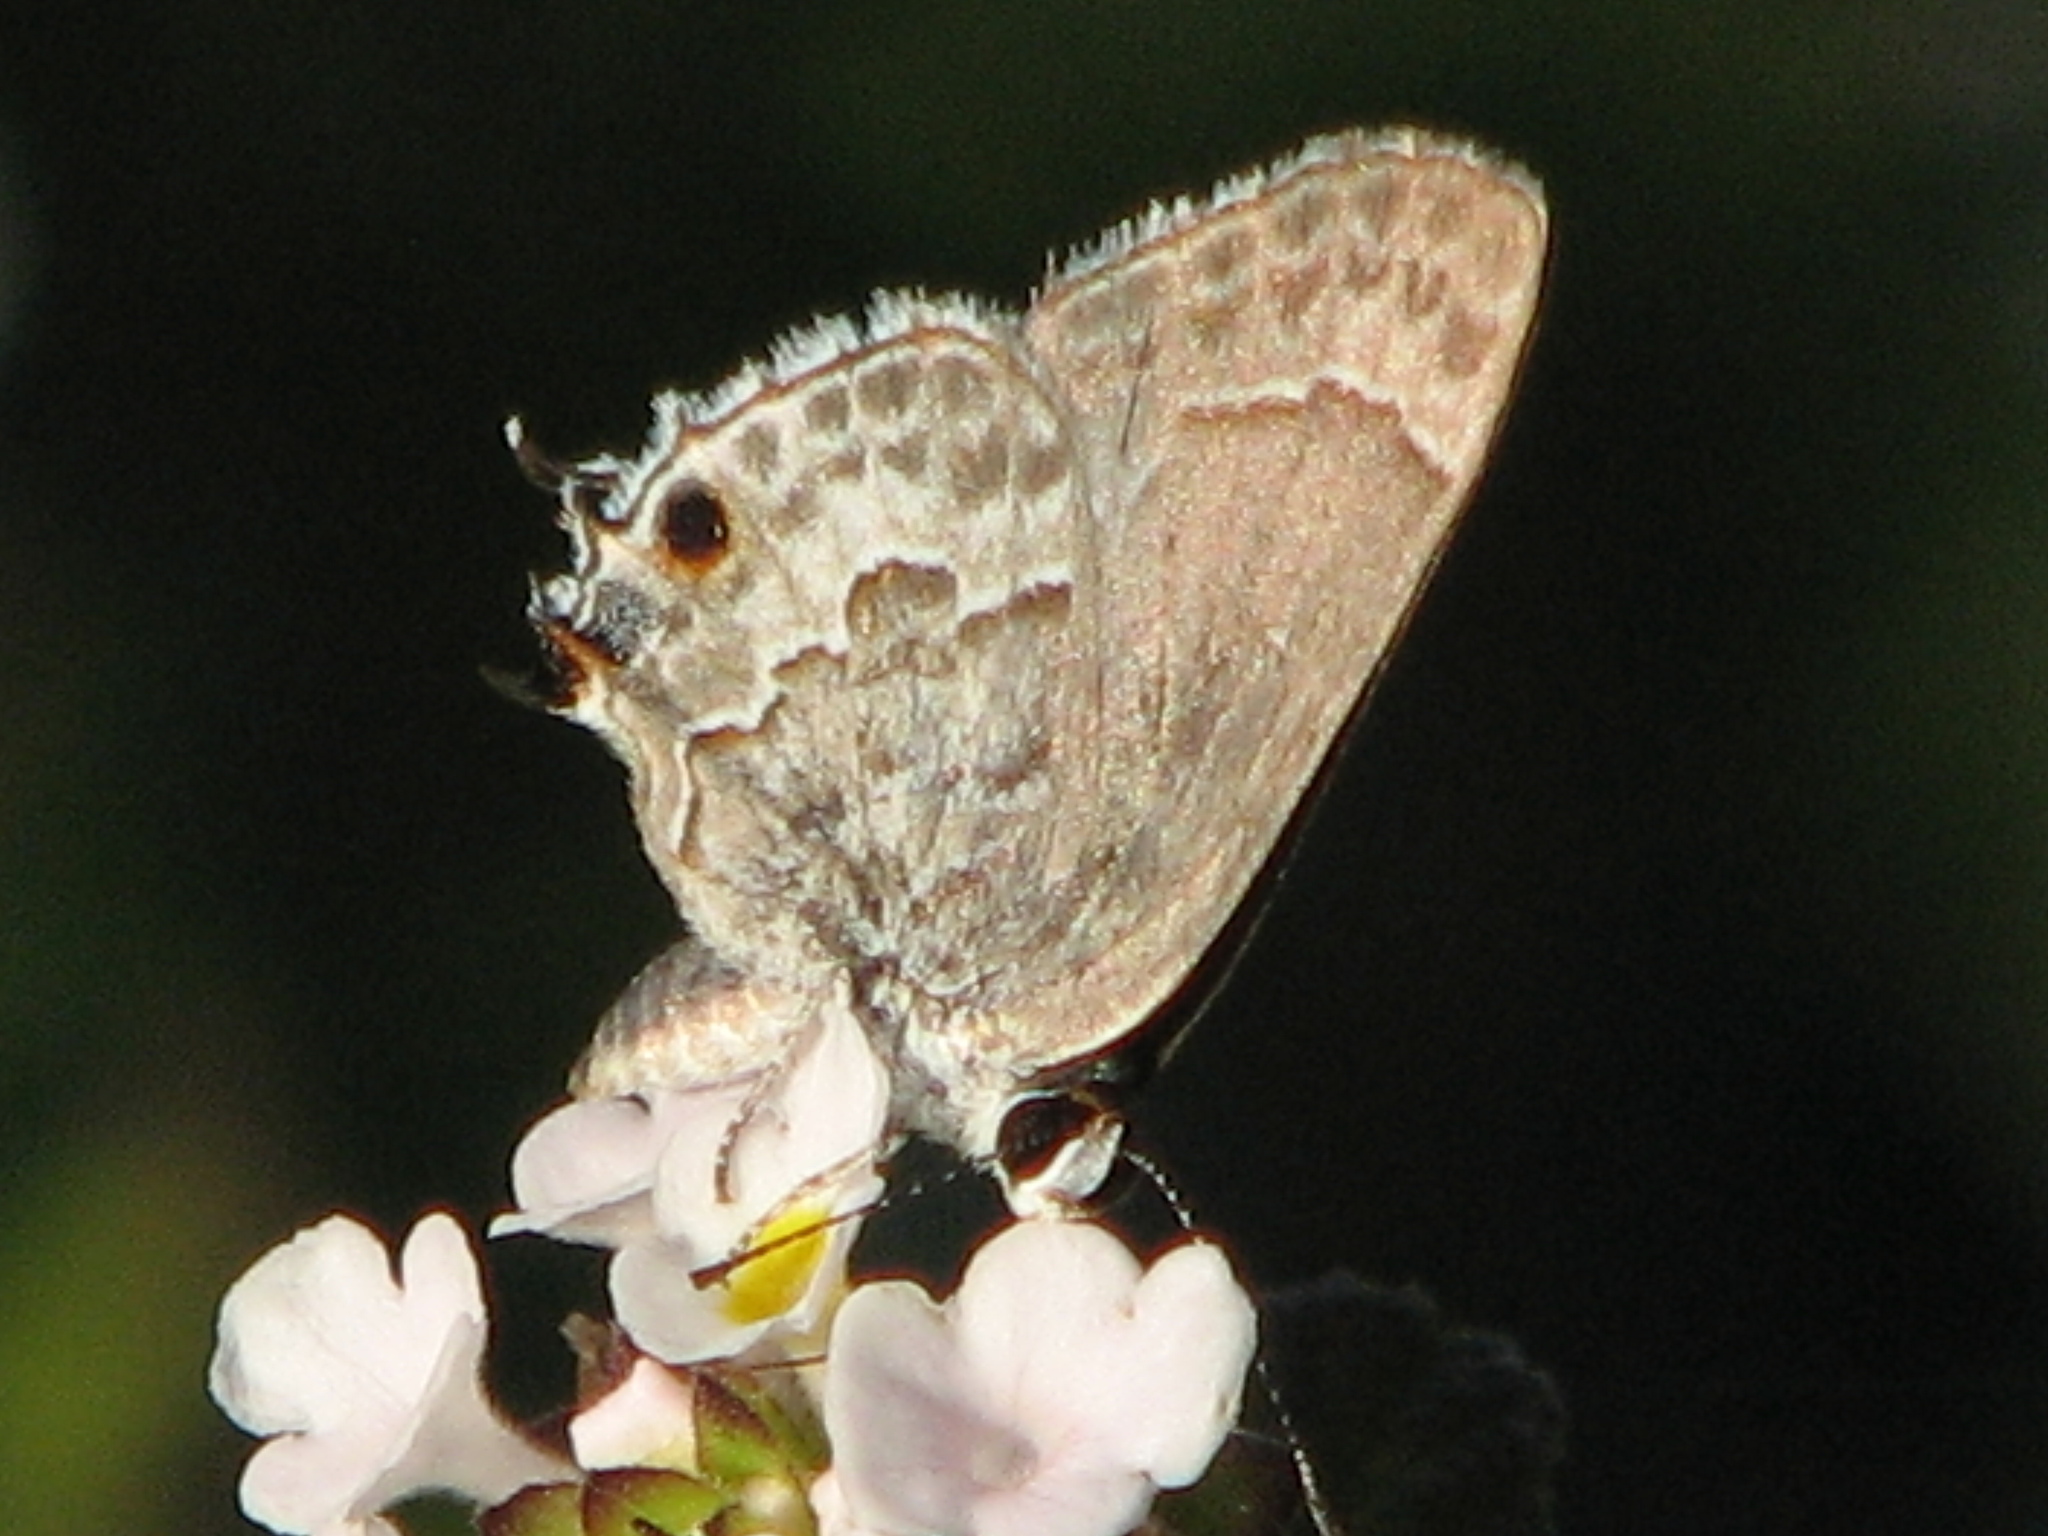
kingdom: Animalia
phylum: Arthropoda
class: Insecta
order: Lepidoptera
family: Lycaenidae
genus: Strymon
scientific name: Strymon alea
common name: Lacey's scrub-hairstreak
